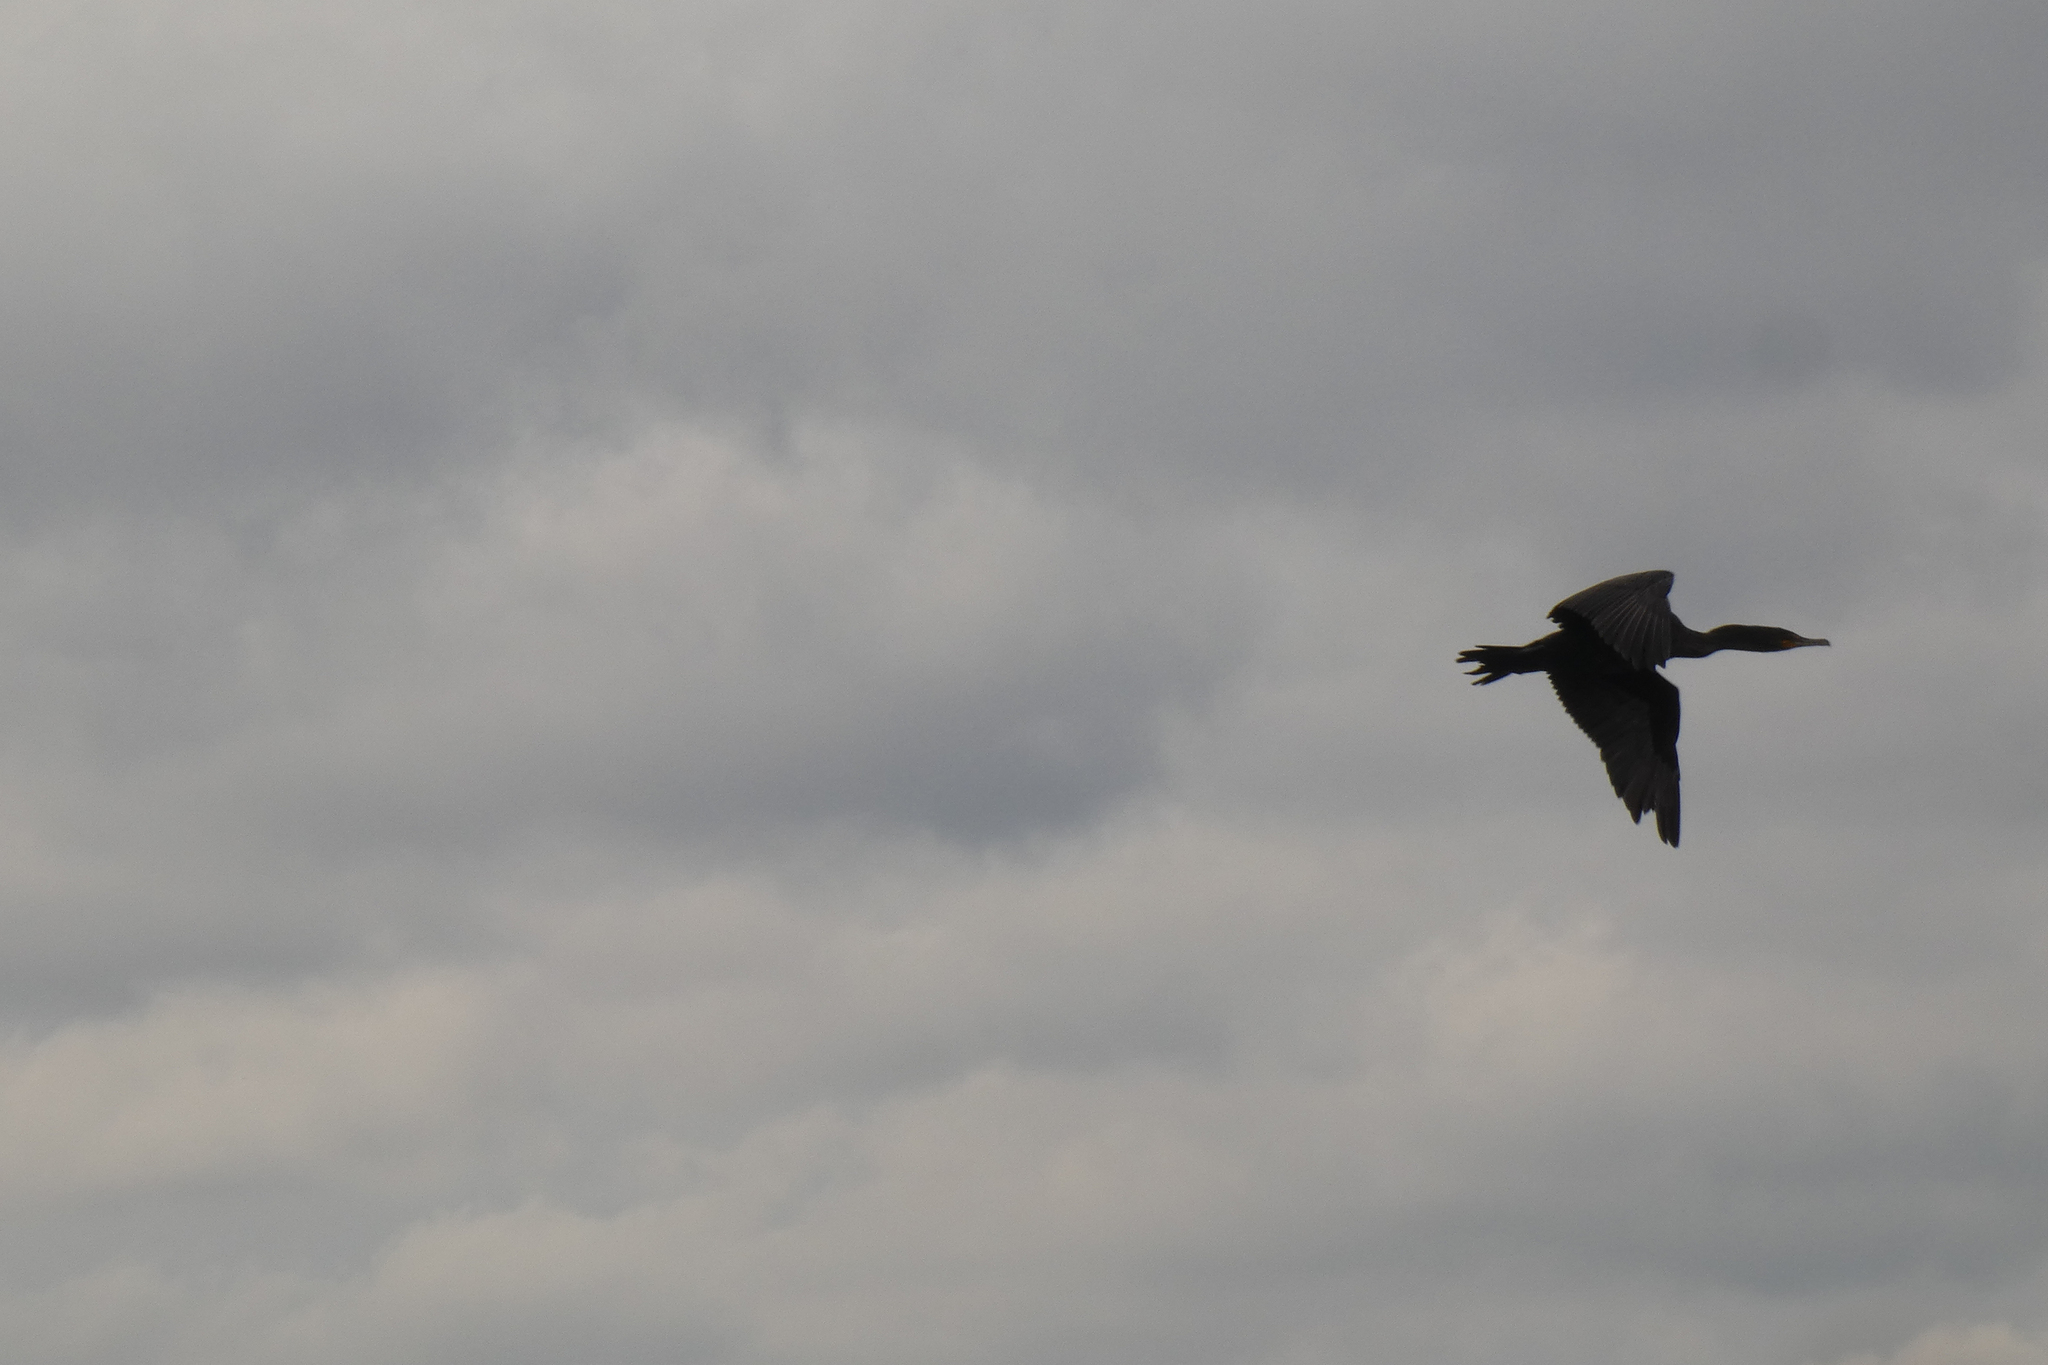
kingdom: Animalia
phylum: Chordata
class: Aves
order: Suliformes
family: Phalacrocoracidae
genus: Phalacrocorax
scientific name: Phalacrocorax auritus
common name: Double-crested cormorant
